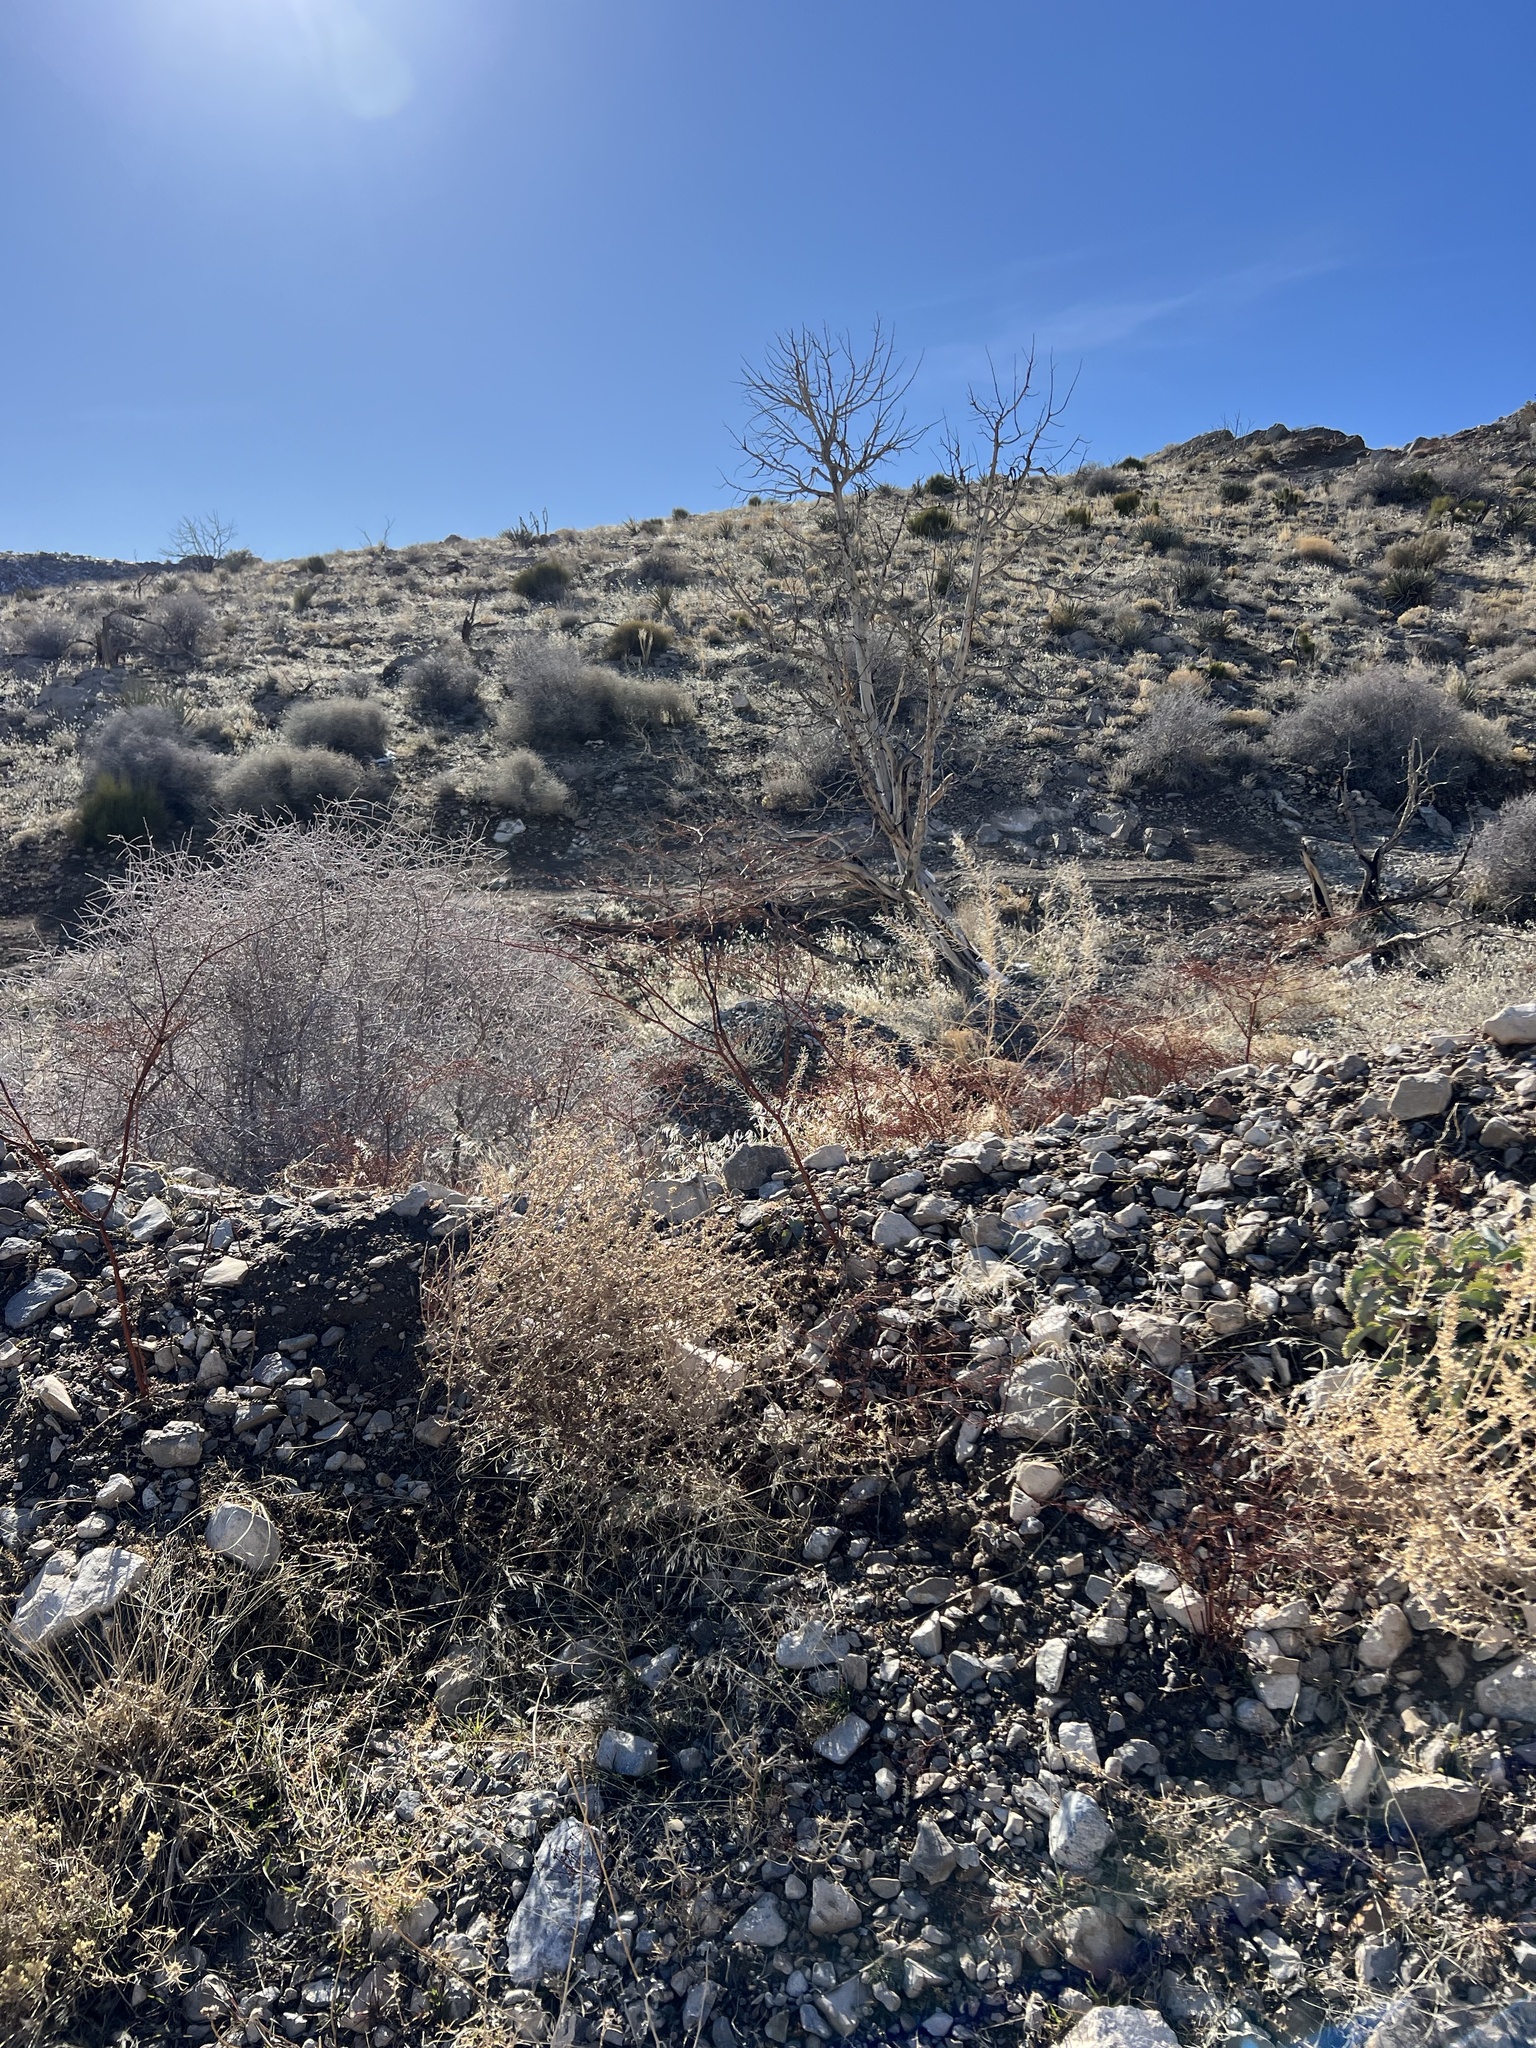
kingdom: Plantae
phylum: Tracheophyta
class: Magnoliopsida
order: Caryophyllales
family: Polygonaceae
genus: Eriogonum
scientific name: Eriogonum deflexum
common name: Skeleton-weed
